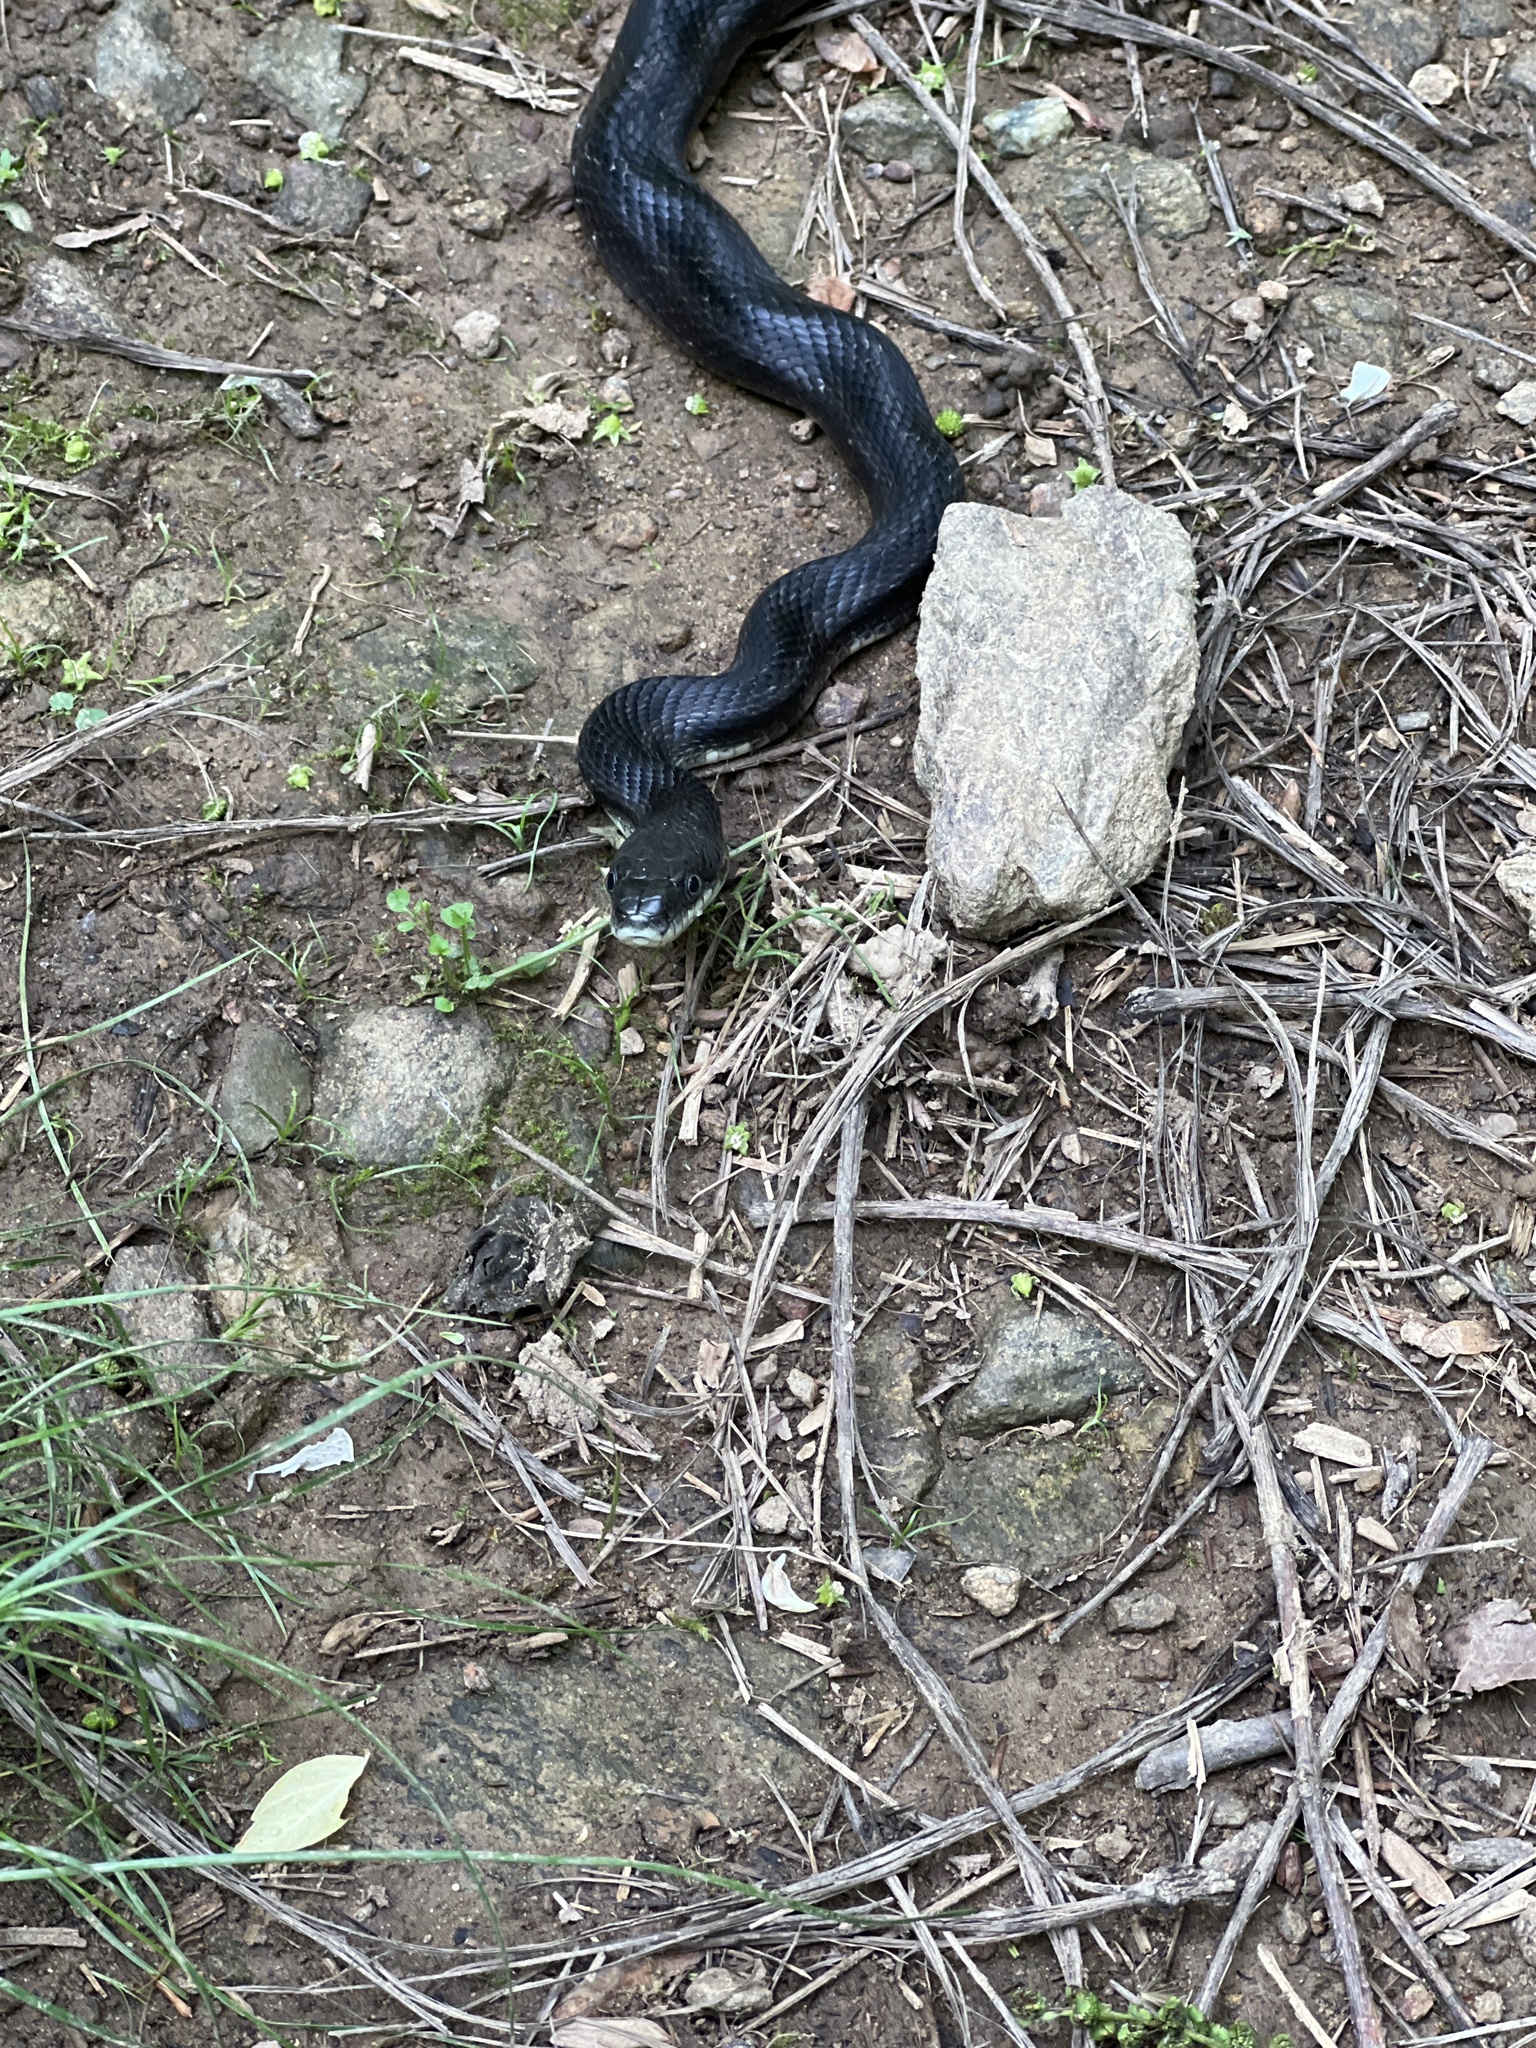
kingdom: Animalia
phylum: Chordata
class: Squamata
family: Colubridae
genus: Pantherophis
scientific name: Pantherophis
